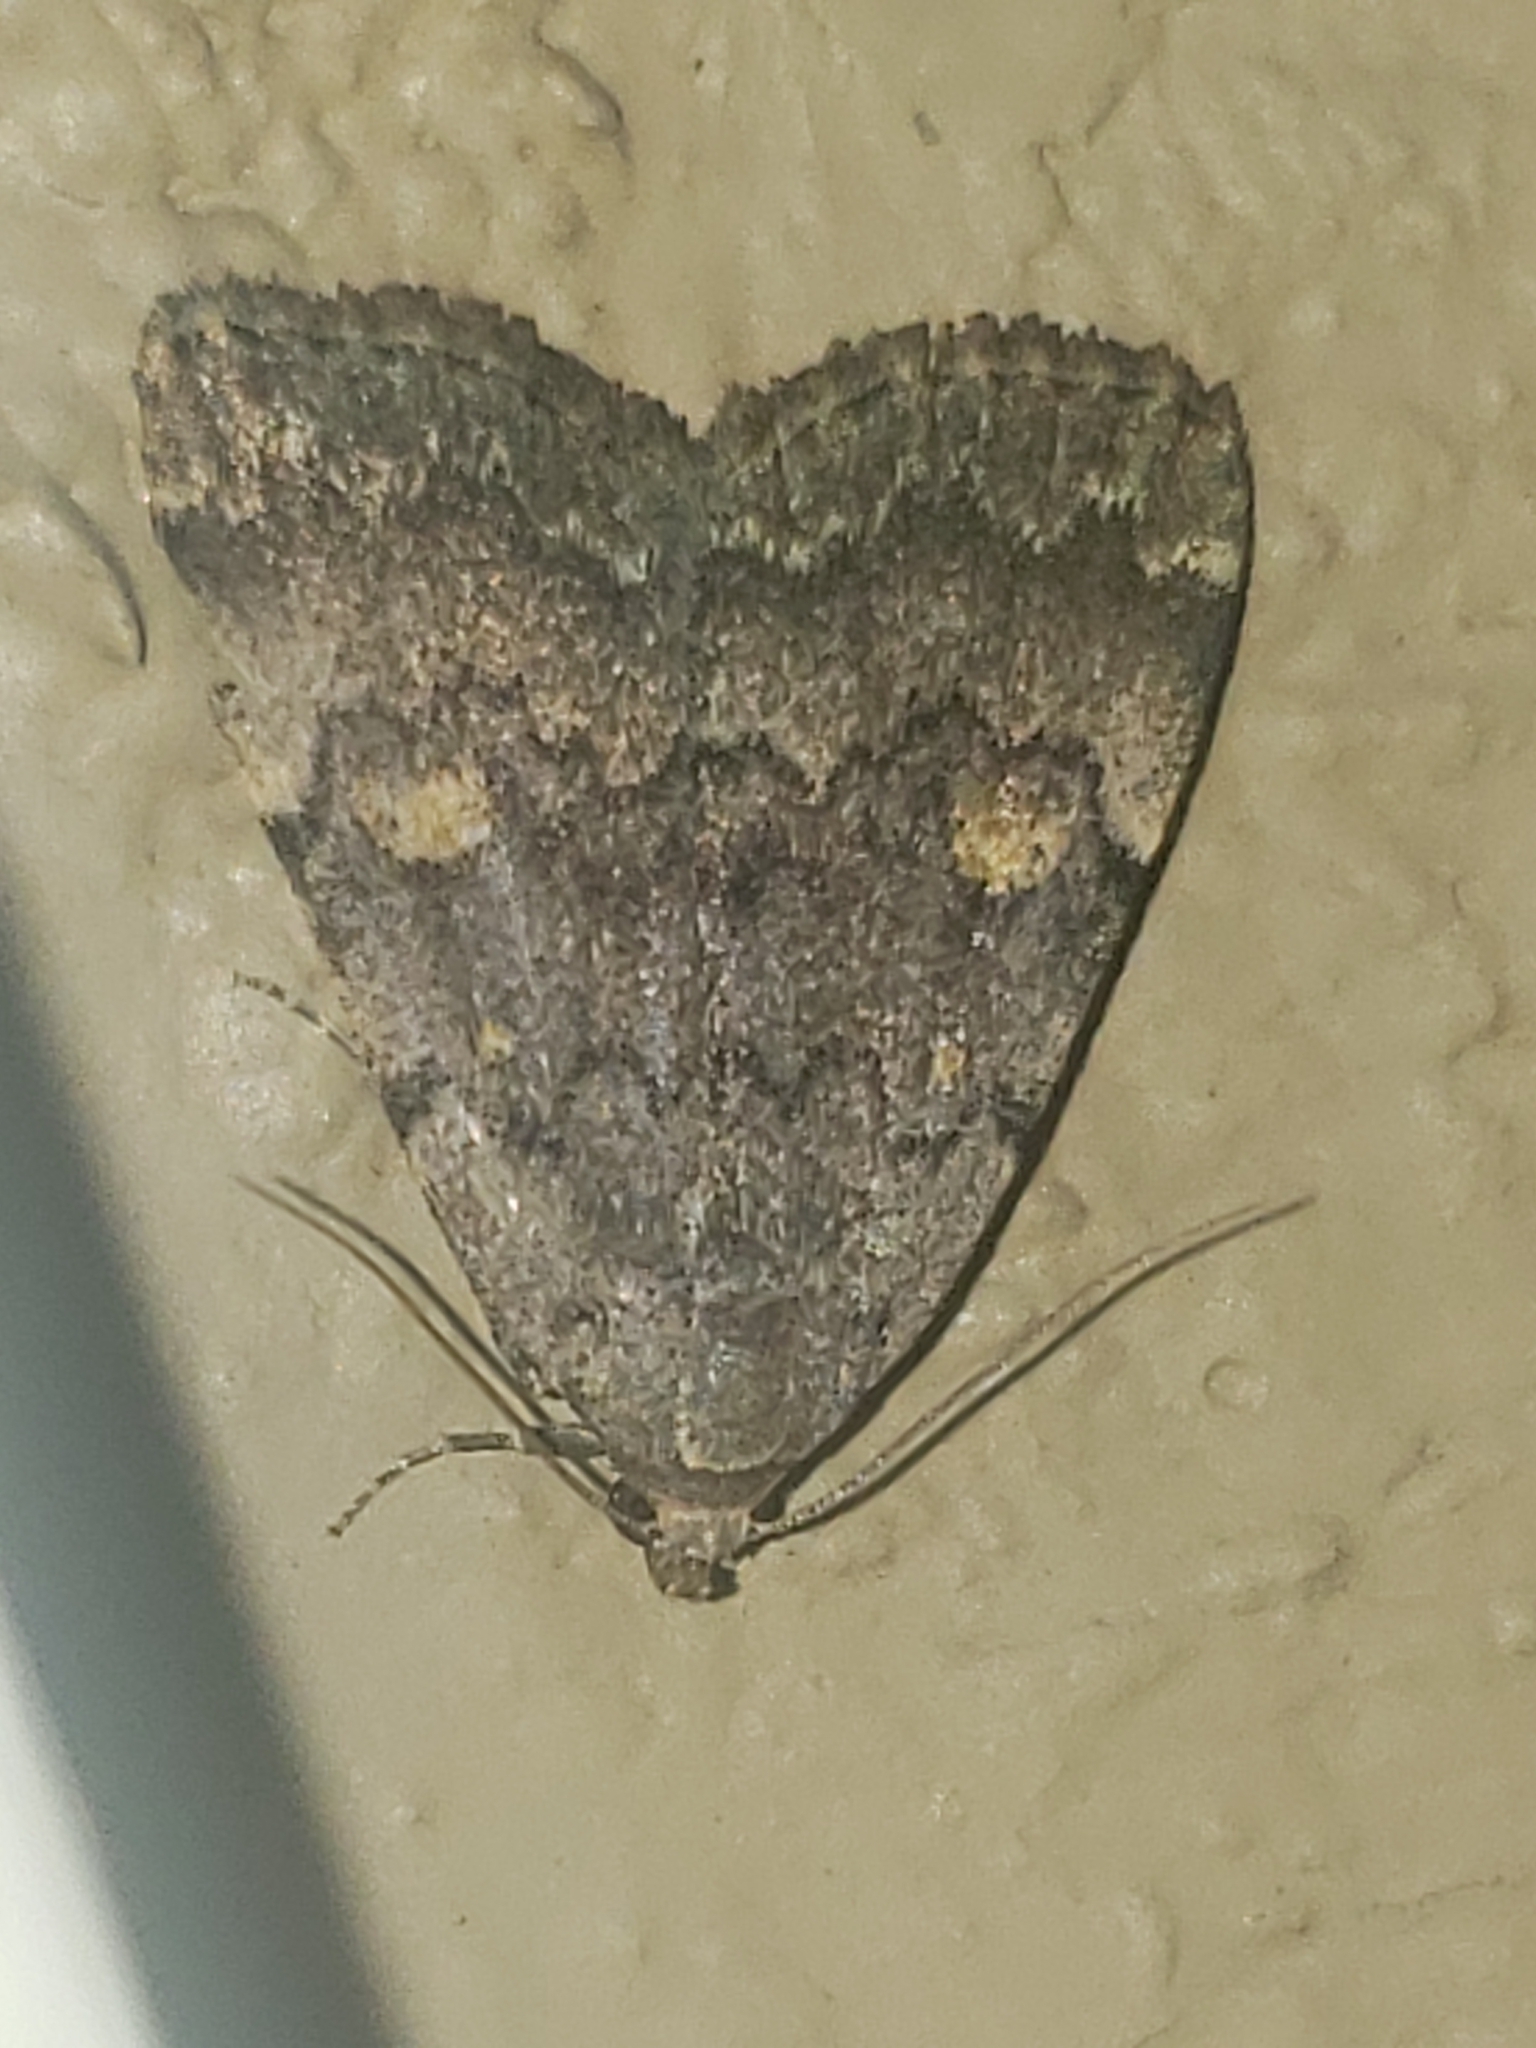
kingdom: Animalia
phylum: Arthropoda
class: Insecta
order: Lepidoptera
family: Erebidae
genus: Idia
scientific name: Idia aemula
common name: Common idia moth
